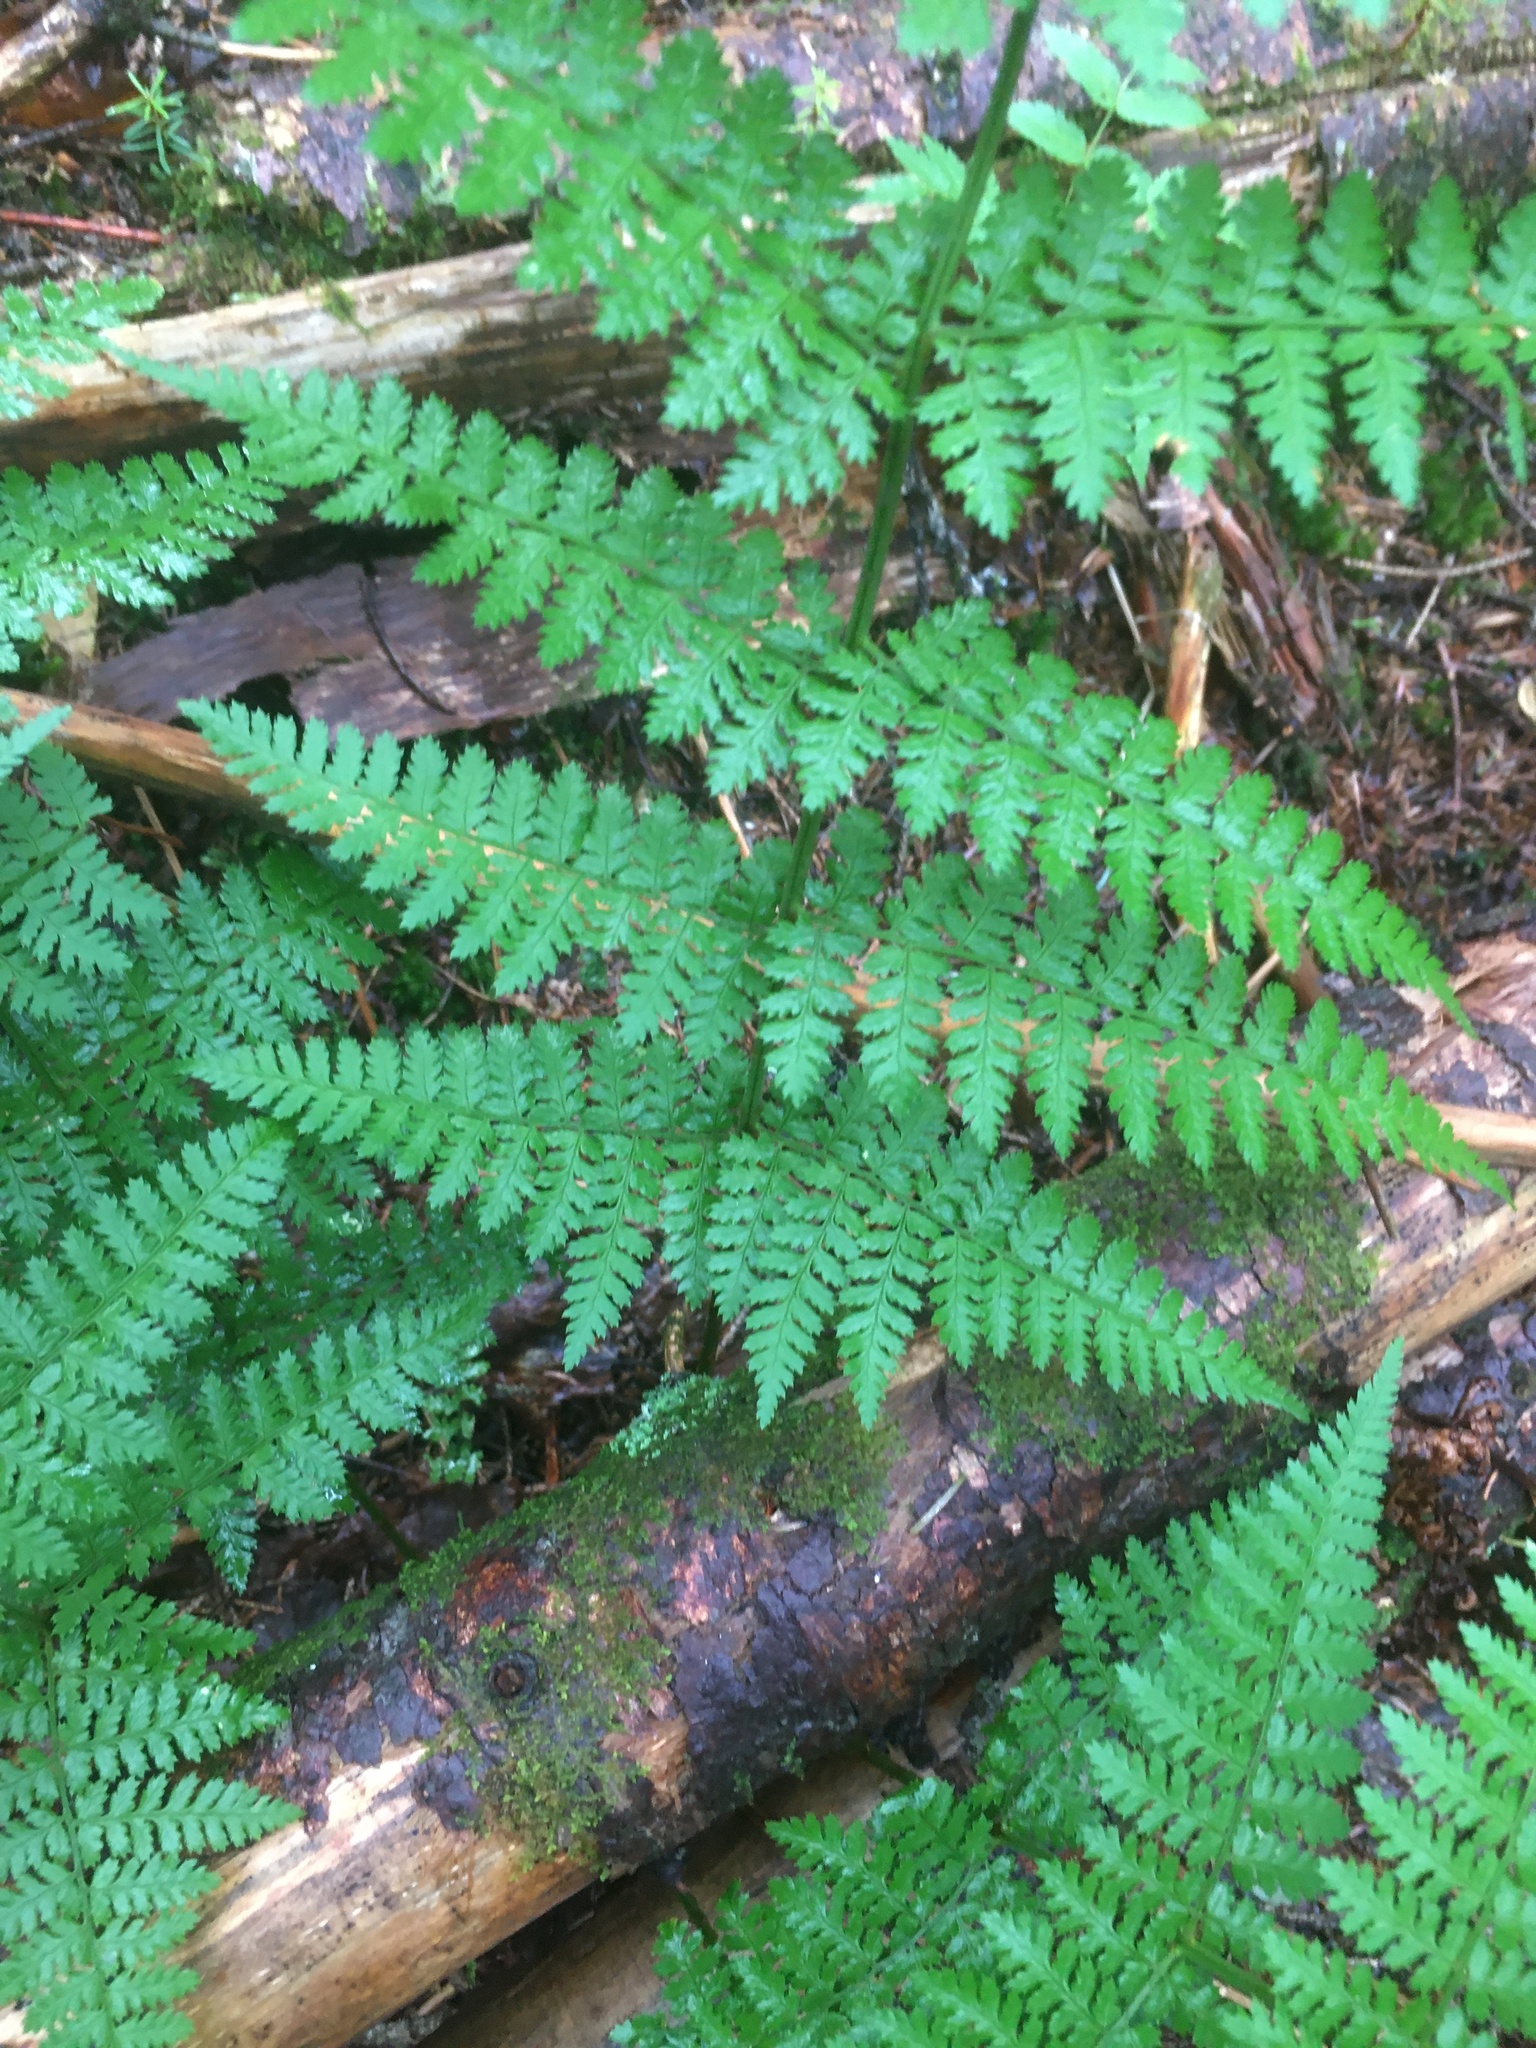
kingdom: Plantae
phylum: Tracheophyta
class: Polypodiopsida
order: Polypodiales
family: Dryopteridaceae
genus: Dryopteris
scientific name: Dryopteris intermedia
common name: Evergreen wood fern
